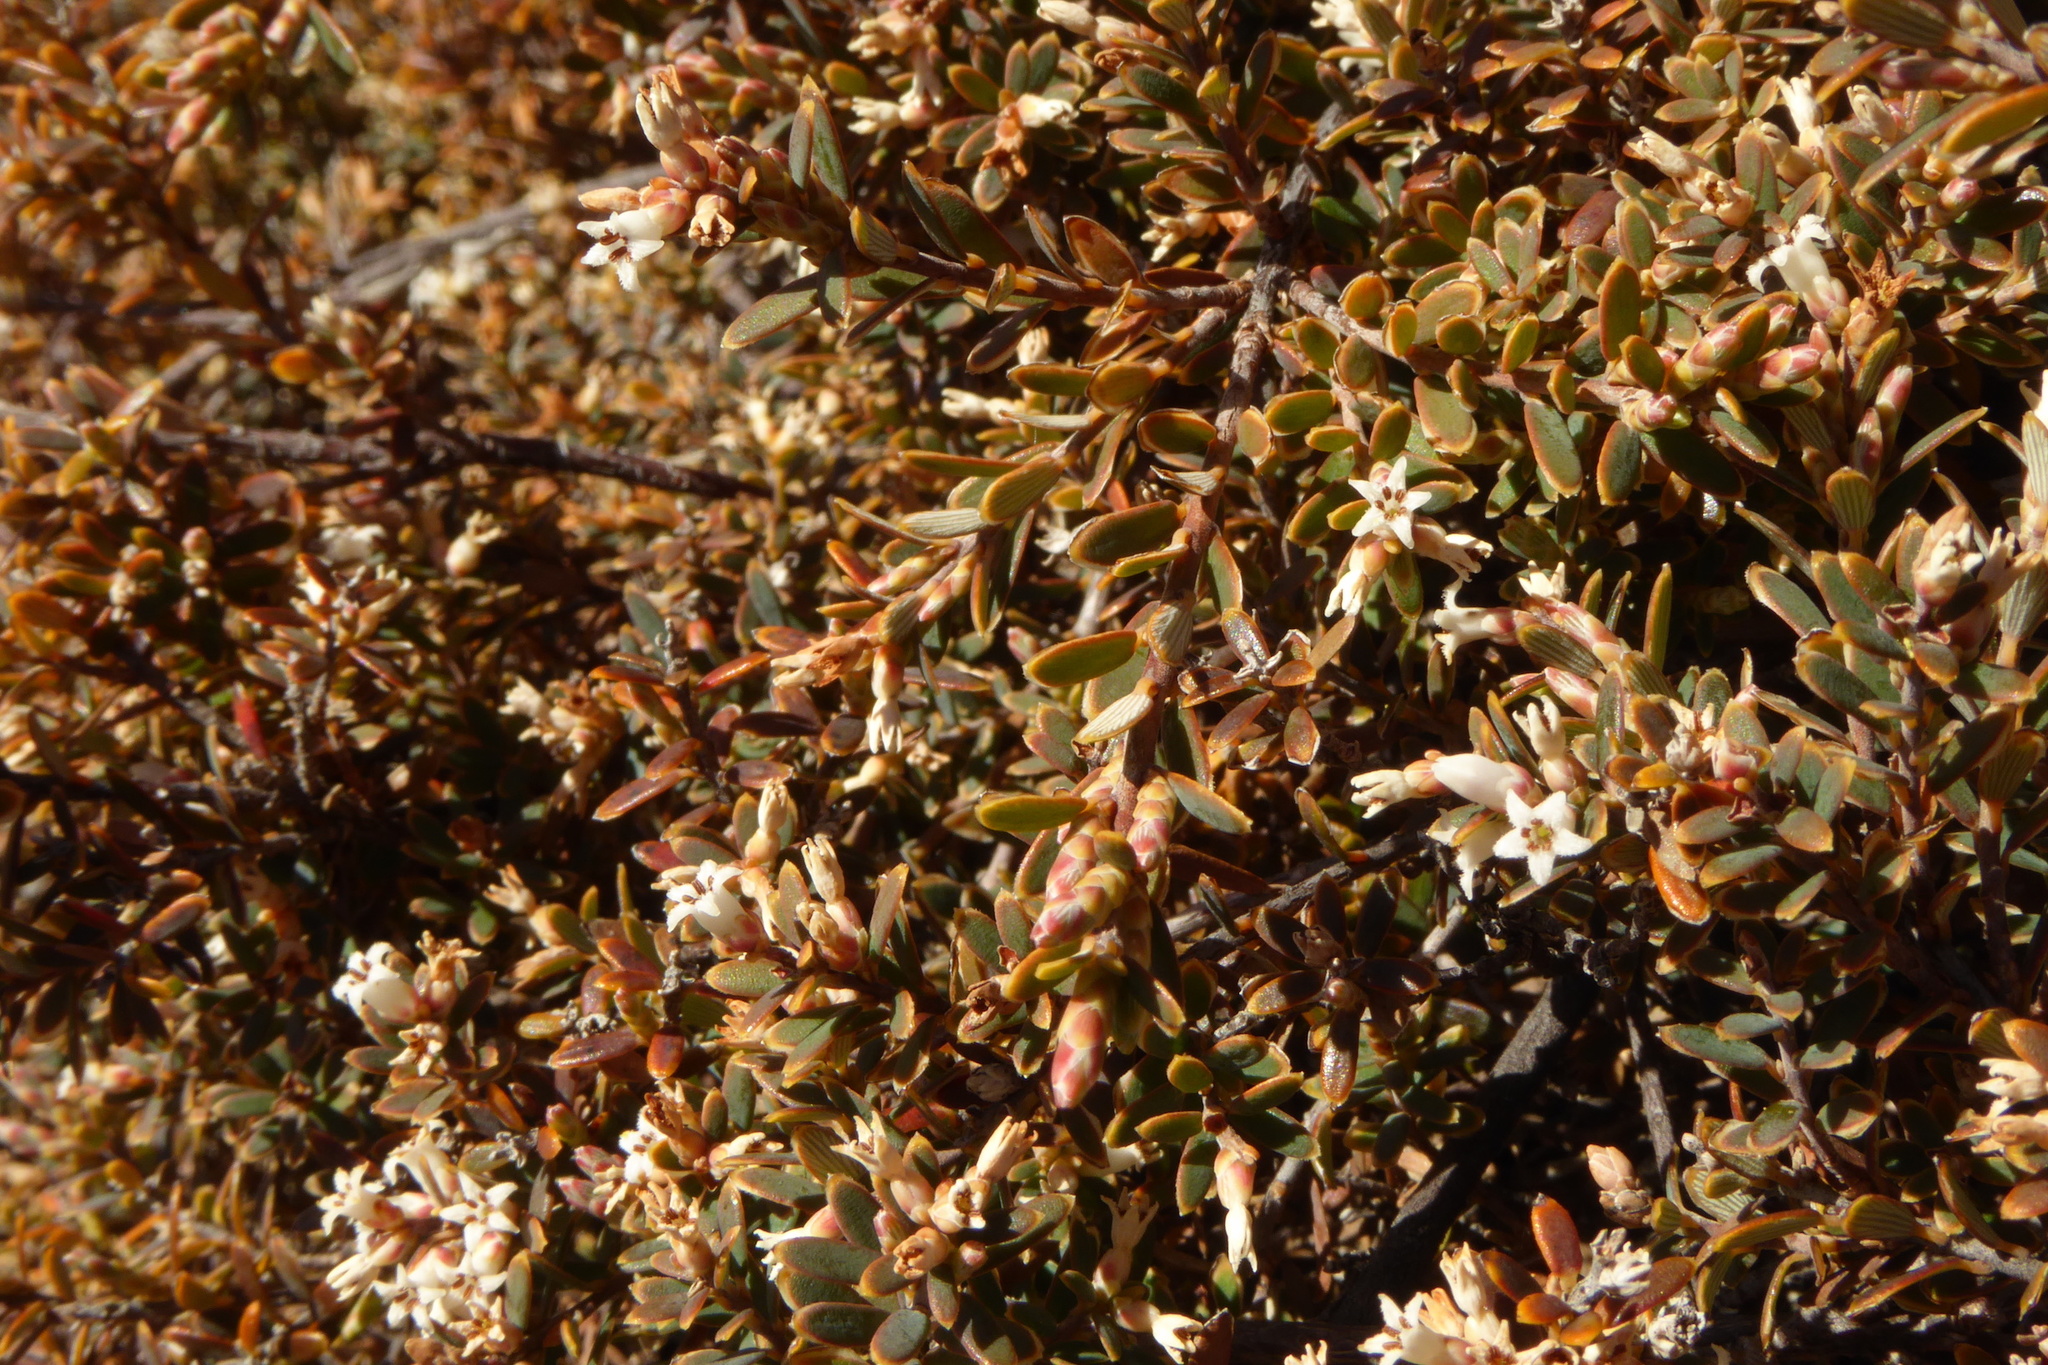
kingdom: Plantae
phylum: Tracheophyta
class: Magnoliopsida
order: Ericales
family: Ericaceae
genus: Acrothamnus
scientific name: Acrothamnus colensoi
